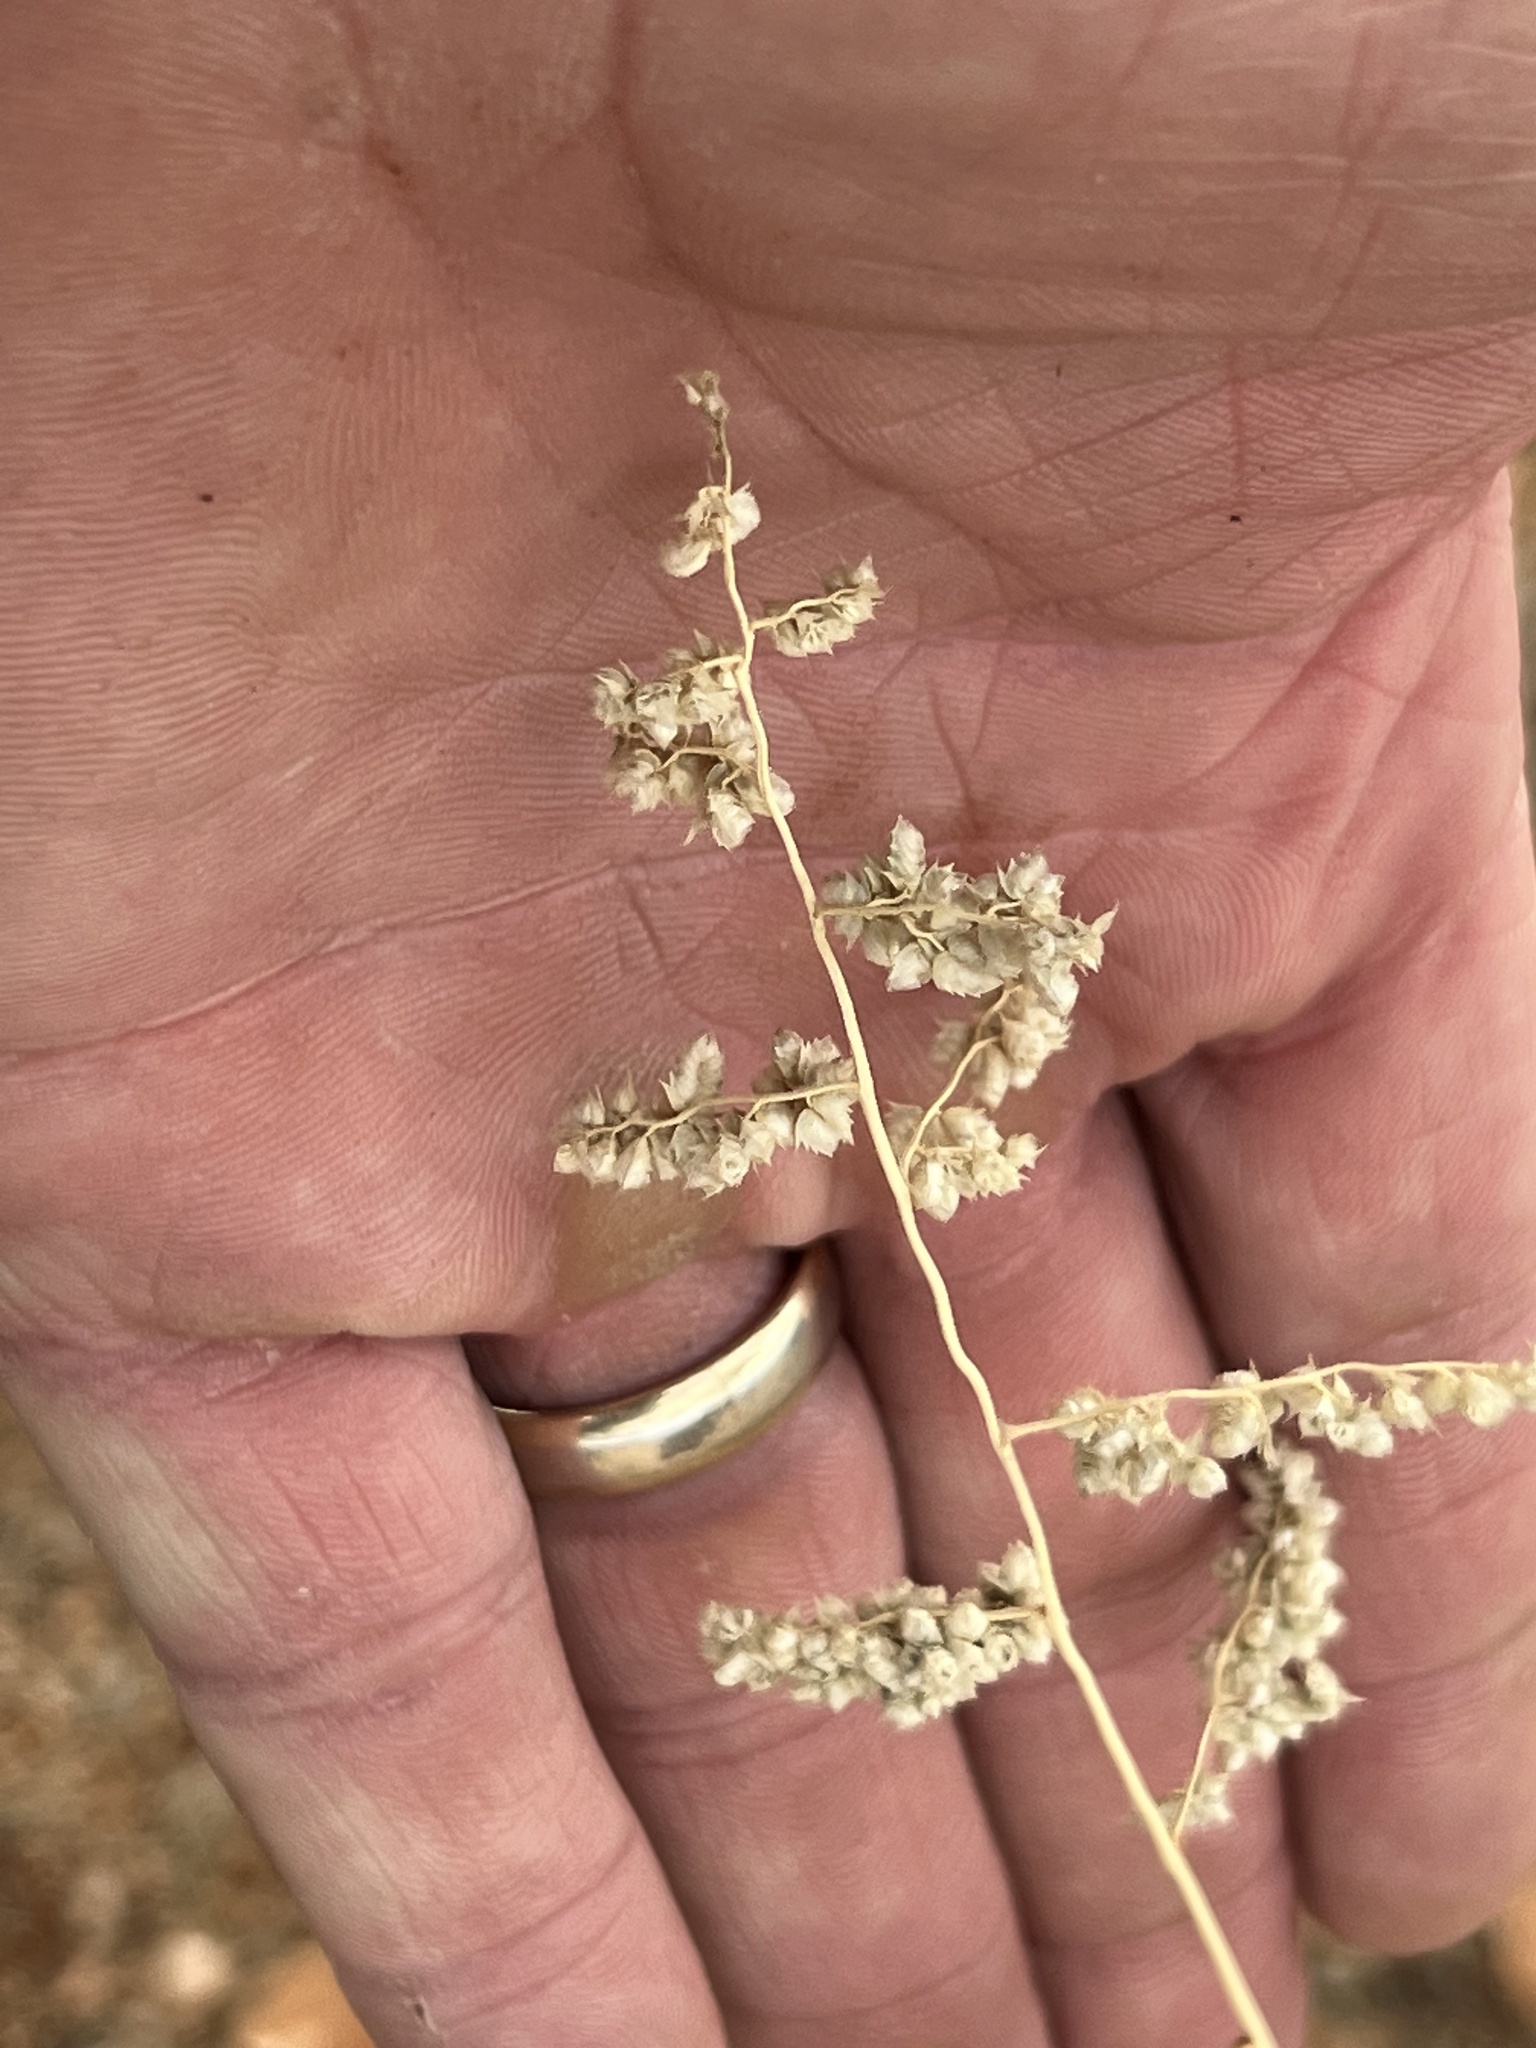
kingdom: Plantae
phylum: Tracheophyta
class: Liliopsida
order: Poales
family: Poaceae
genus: Eragrostis
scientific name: Eragrostis echinochloidea
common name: African lovegrass
